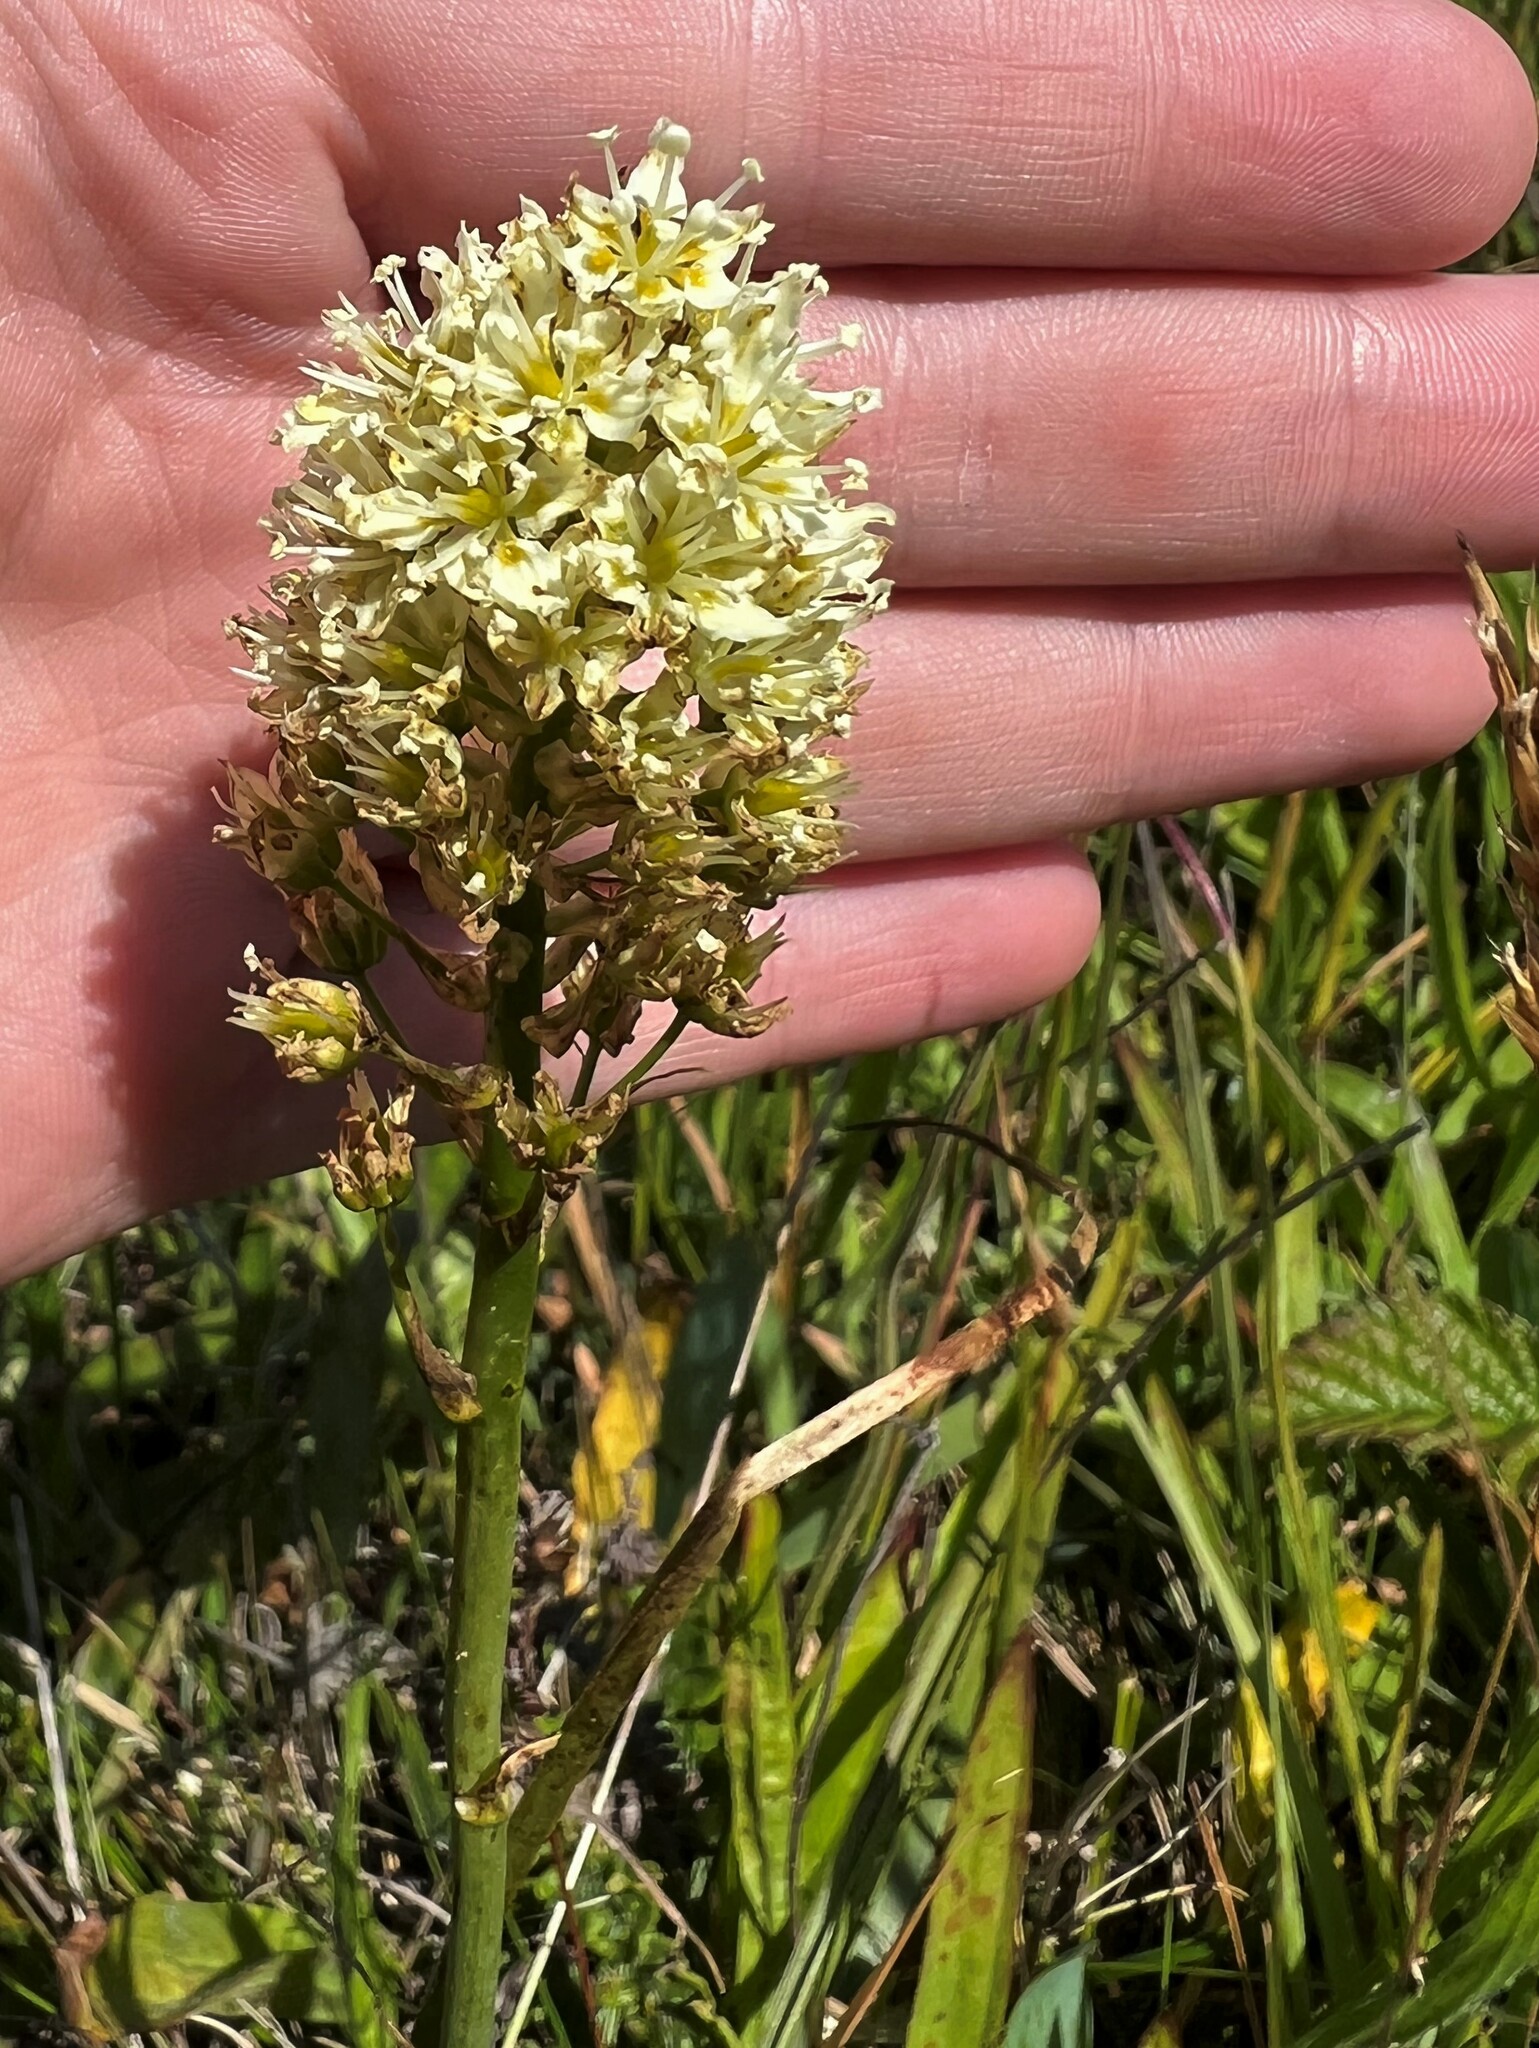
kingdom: Plantae
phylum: Tracheophyta
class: Liliopsida
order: Liliales
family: Melanthiaceae
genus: Toxicoscordion
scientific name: Toxicoscordion venenosum
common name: Meadow death camas
